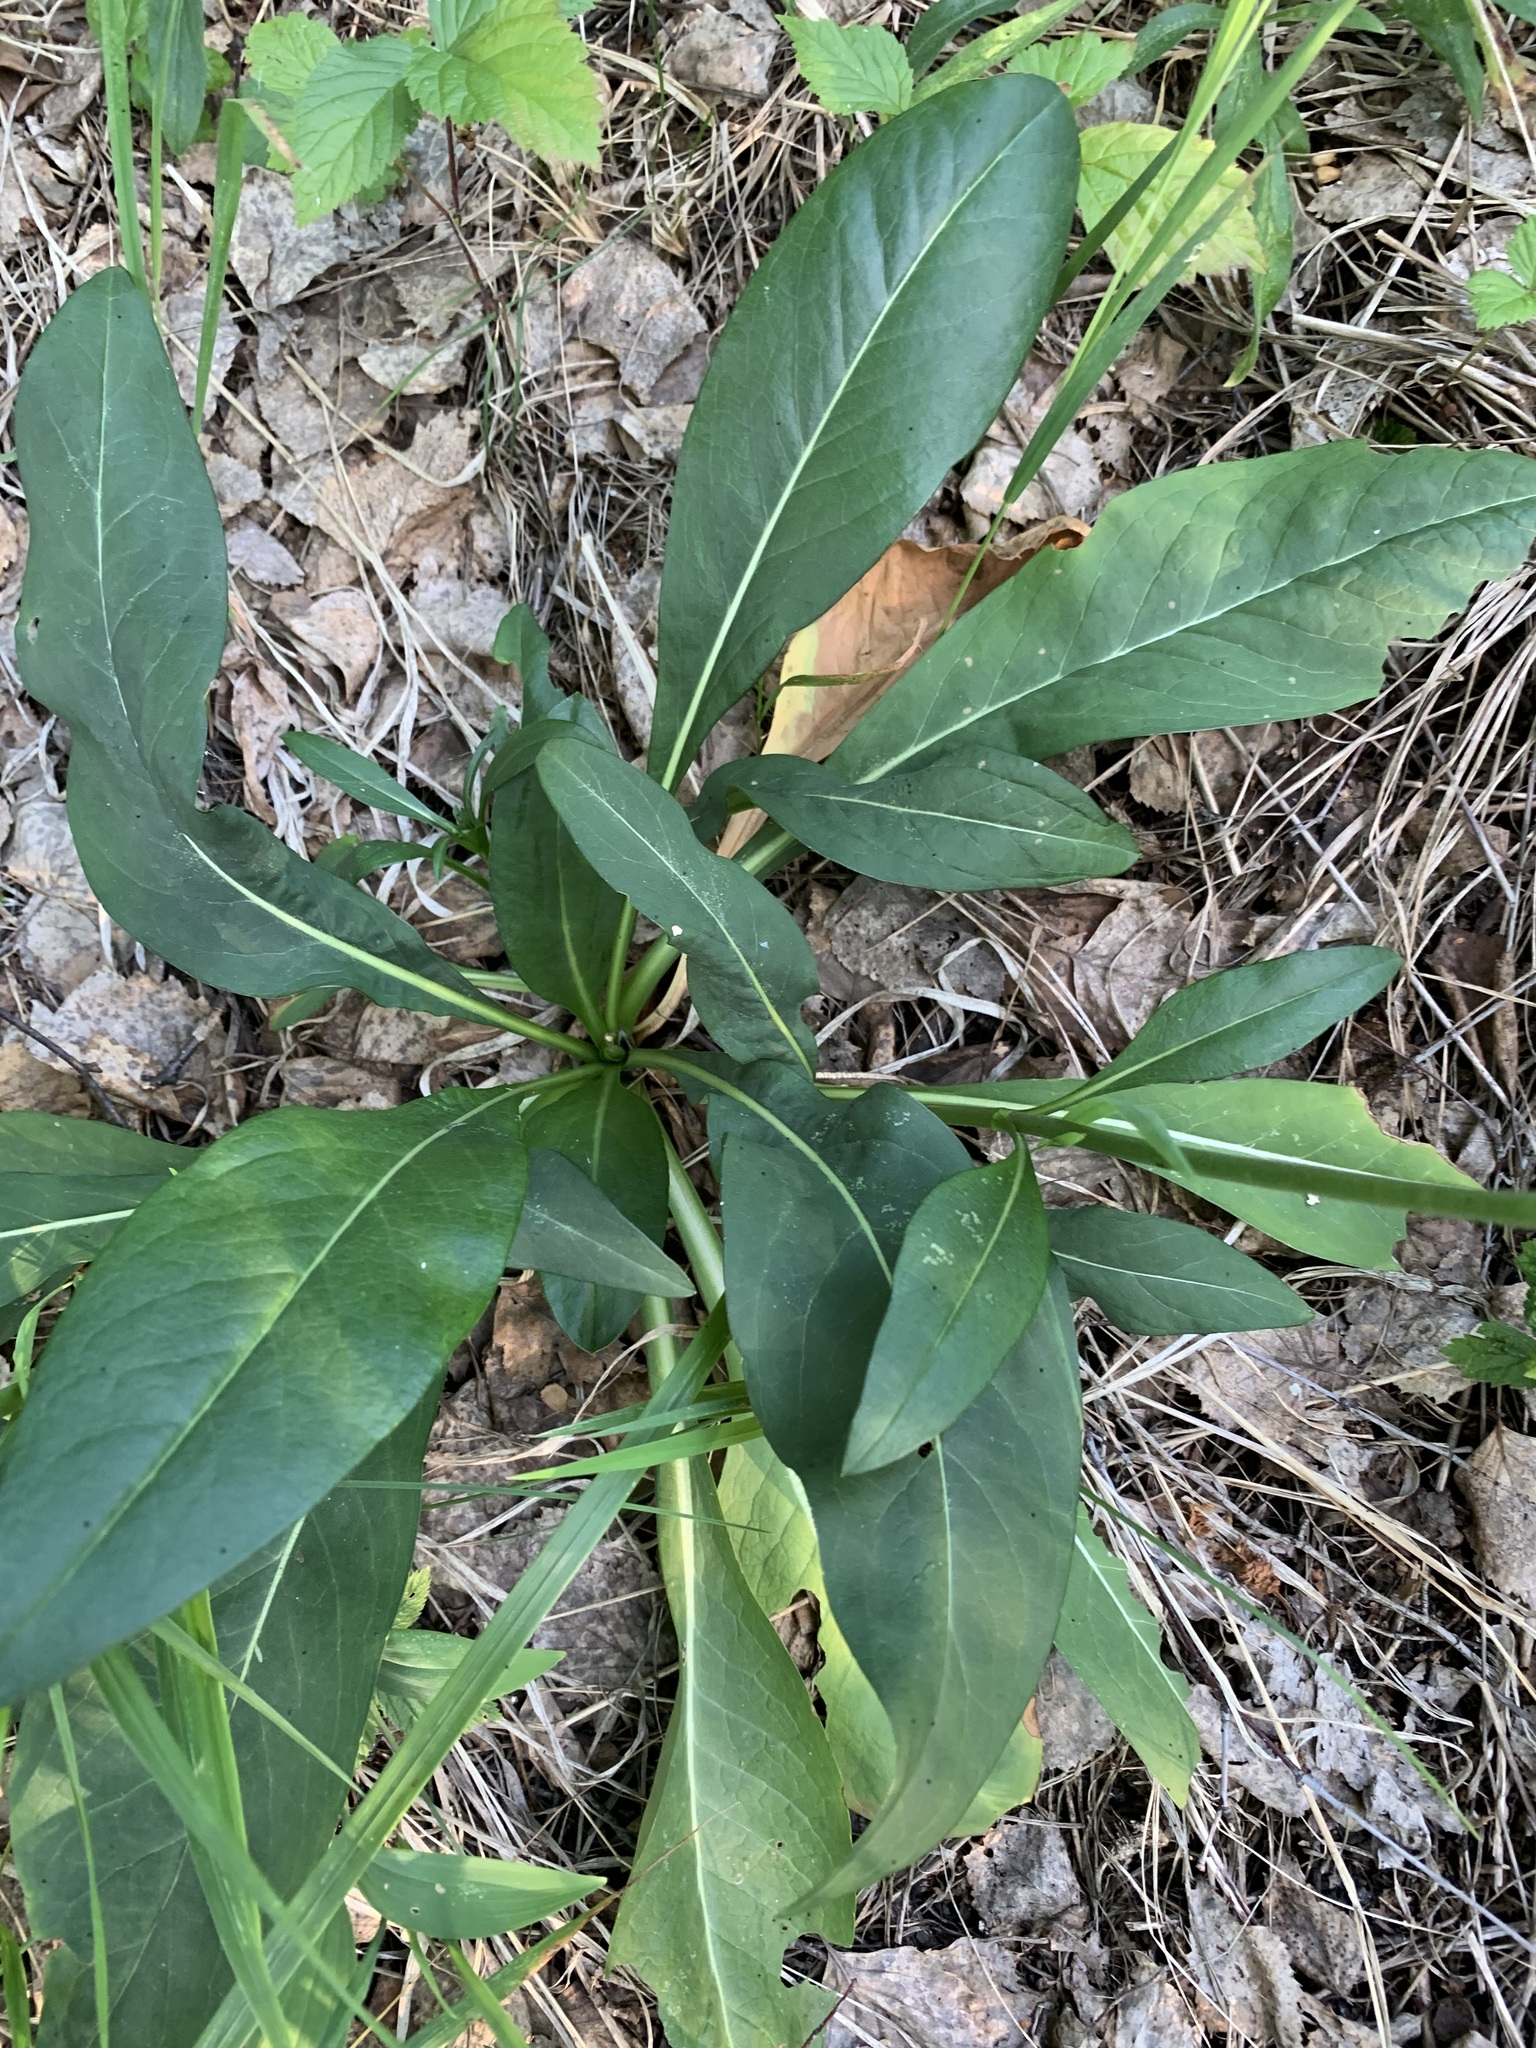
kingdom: Plantae
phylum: Tracheophyta
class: Magnoliopsida
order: Dipsacales
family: Caprifoliaceae
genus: Succisa
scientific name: Succisa pratensis
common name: Devil's-bit
